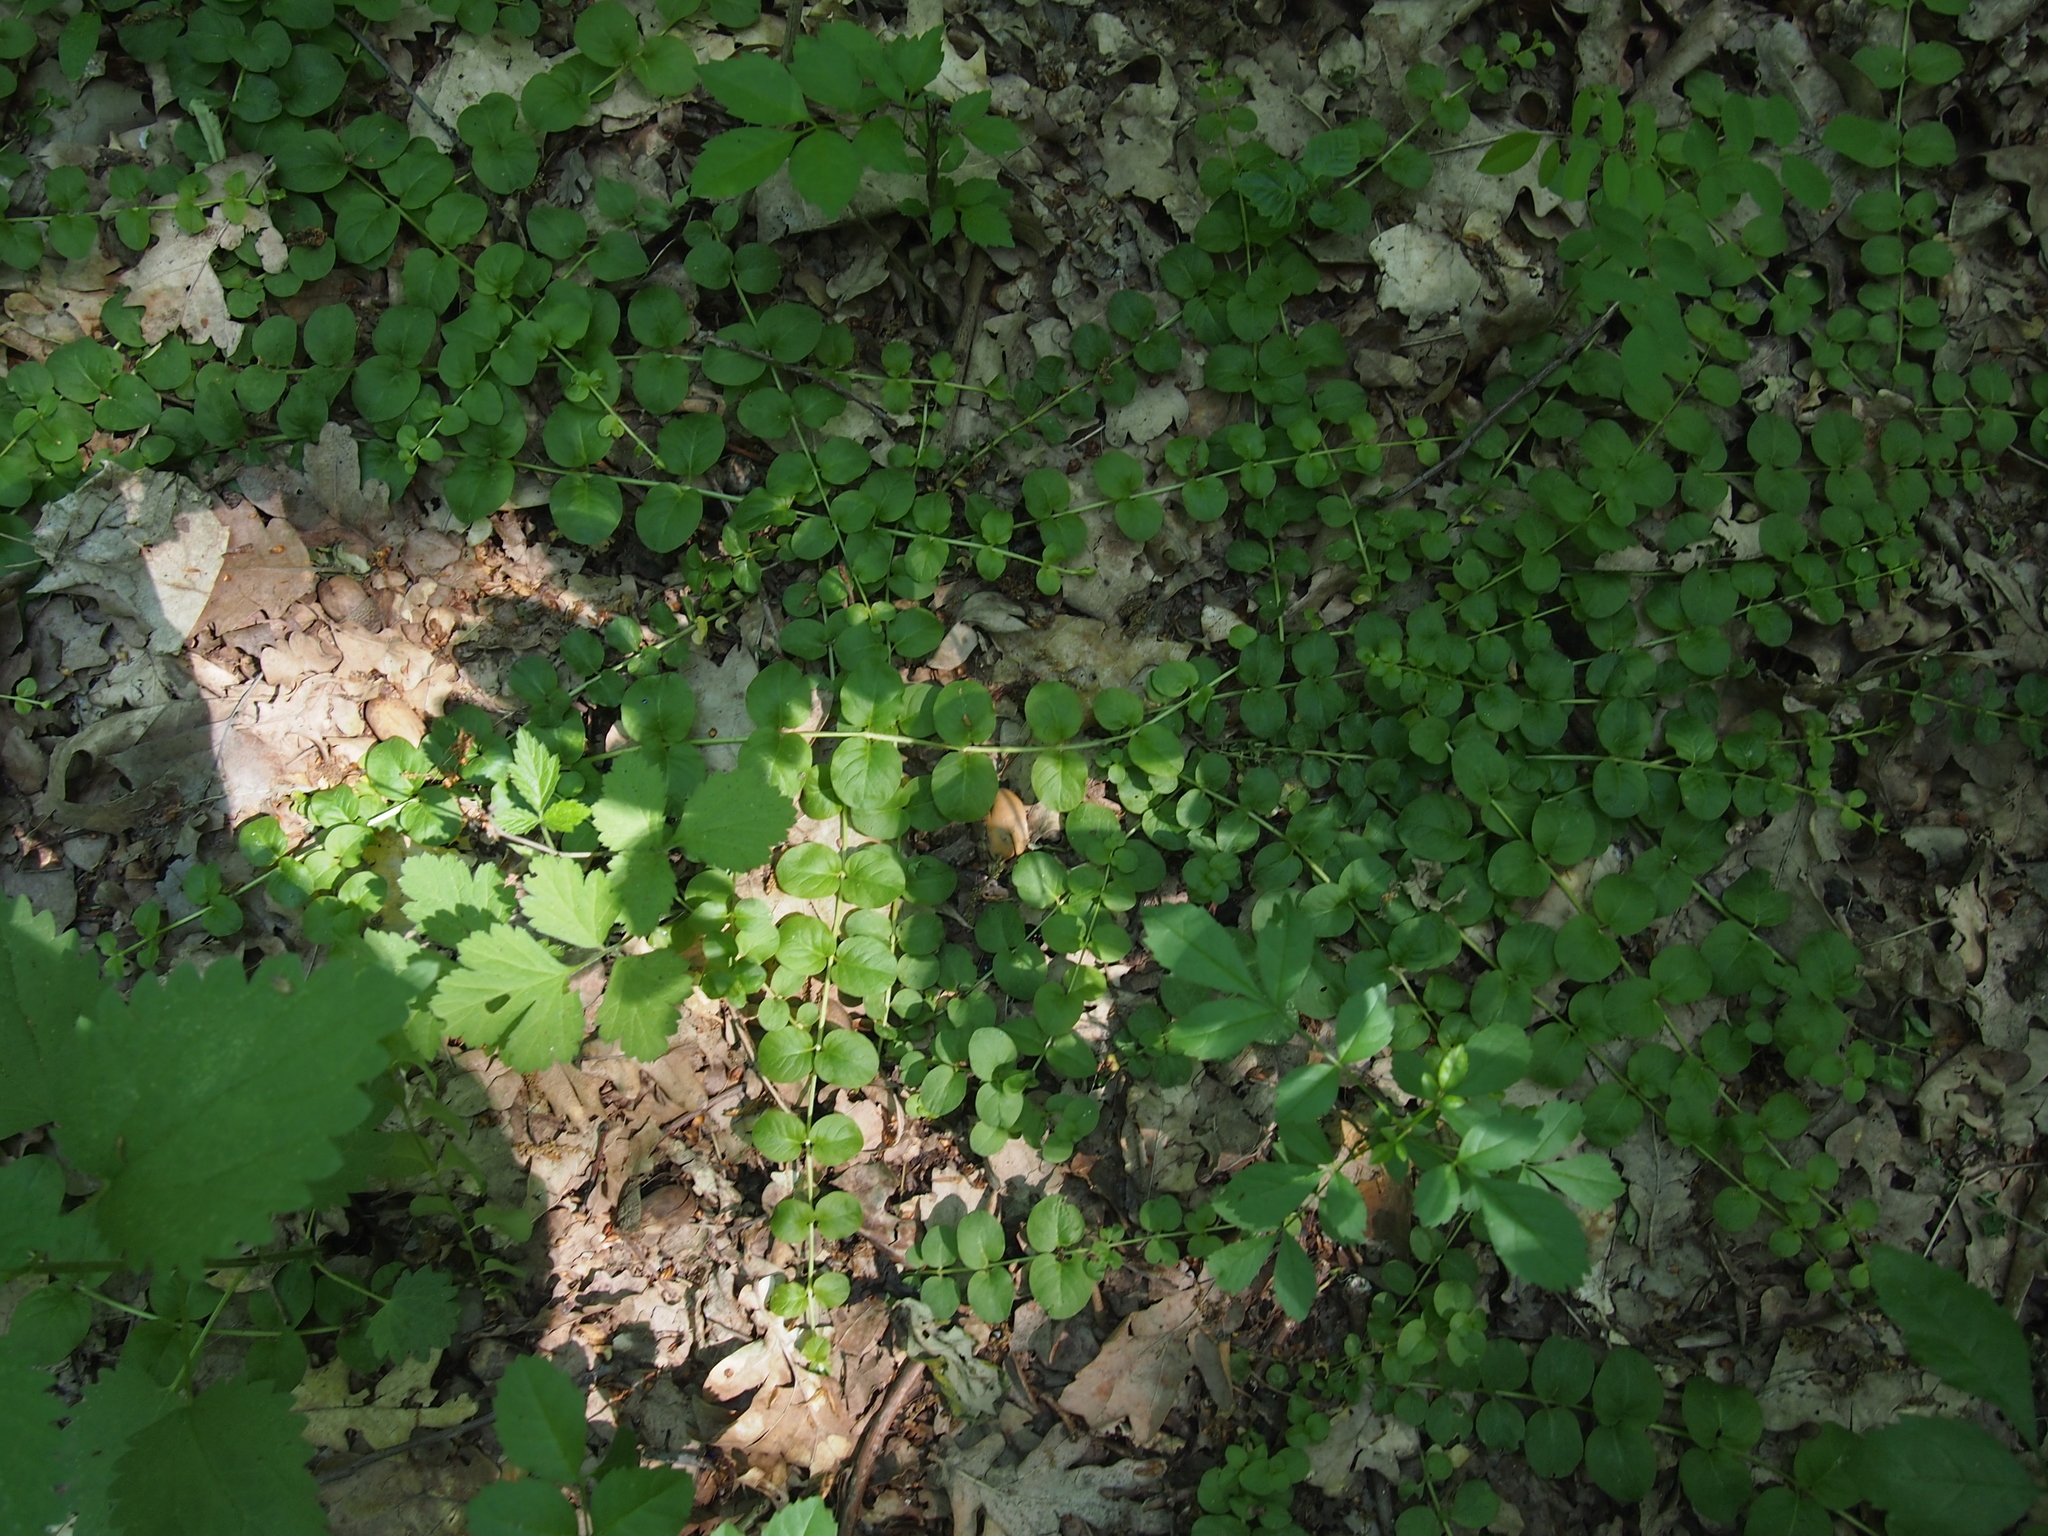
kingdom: Plantae
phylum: Tracheophyta
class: Magnoliopsida
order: Ericales
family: Primulaceae
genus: Lysimachia
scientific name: Lysimachia nummularia
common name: Moneywort
